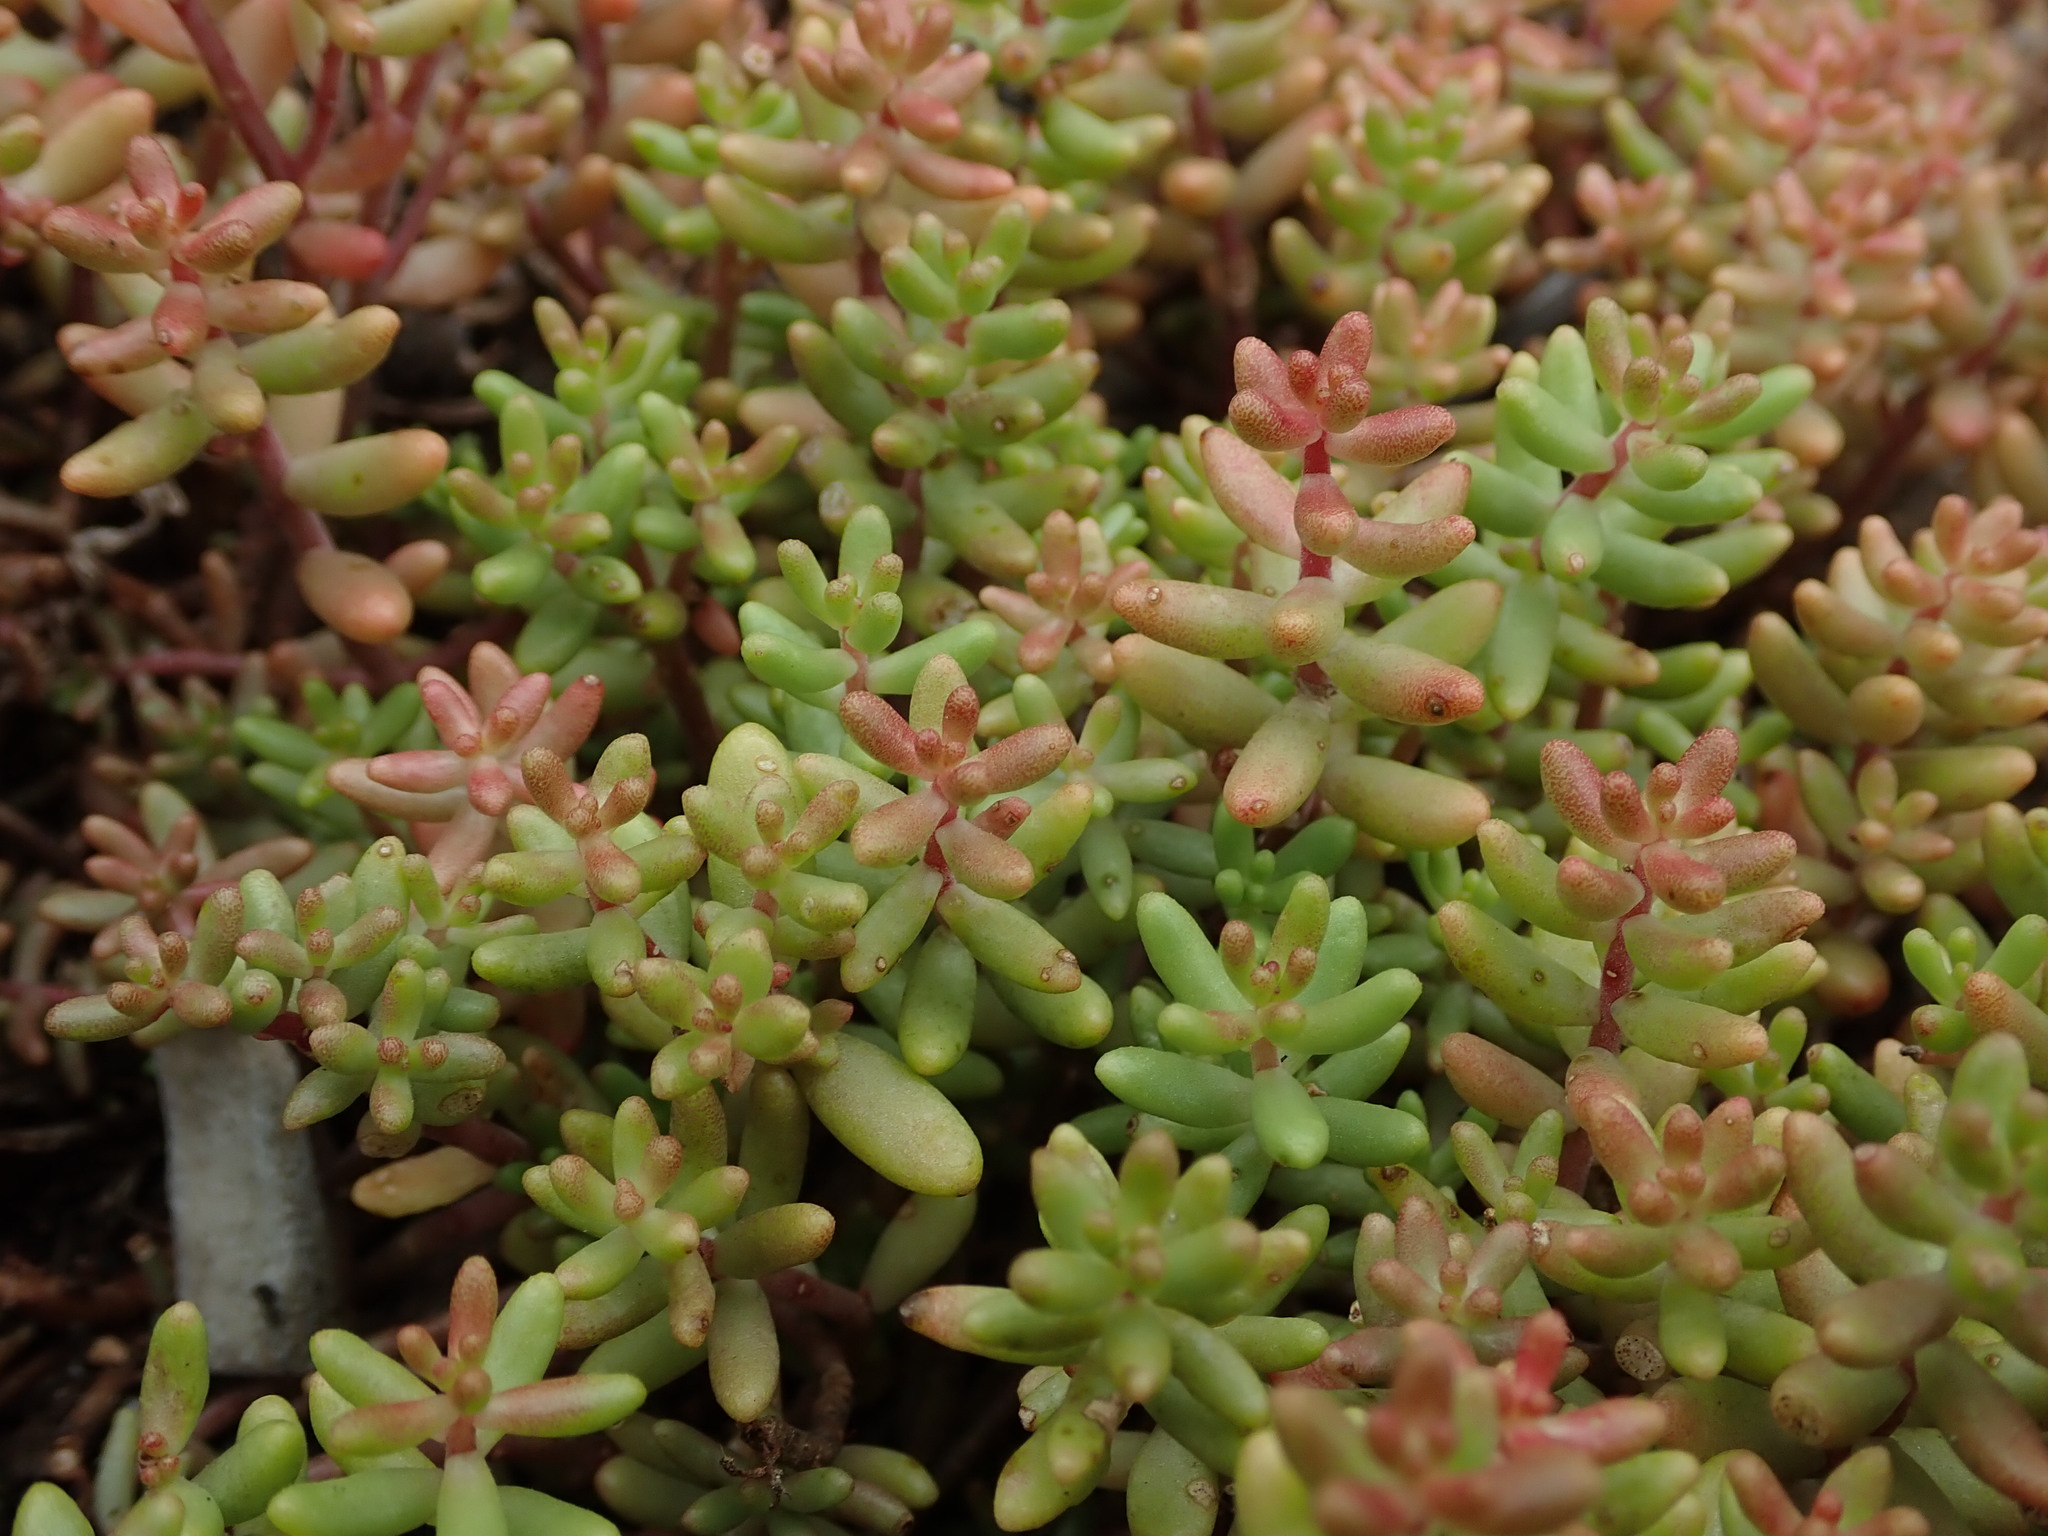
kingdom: Plantae
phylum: Tracheophyta
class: Magnoliopsida
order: Saxifragales
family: Crassulaceae
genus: Sedum
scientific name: Sedum album
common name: White stonecrop
